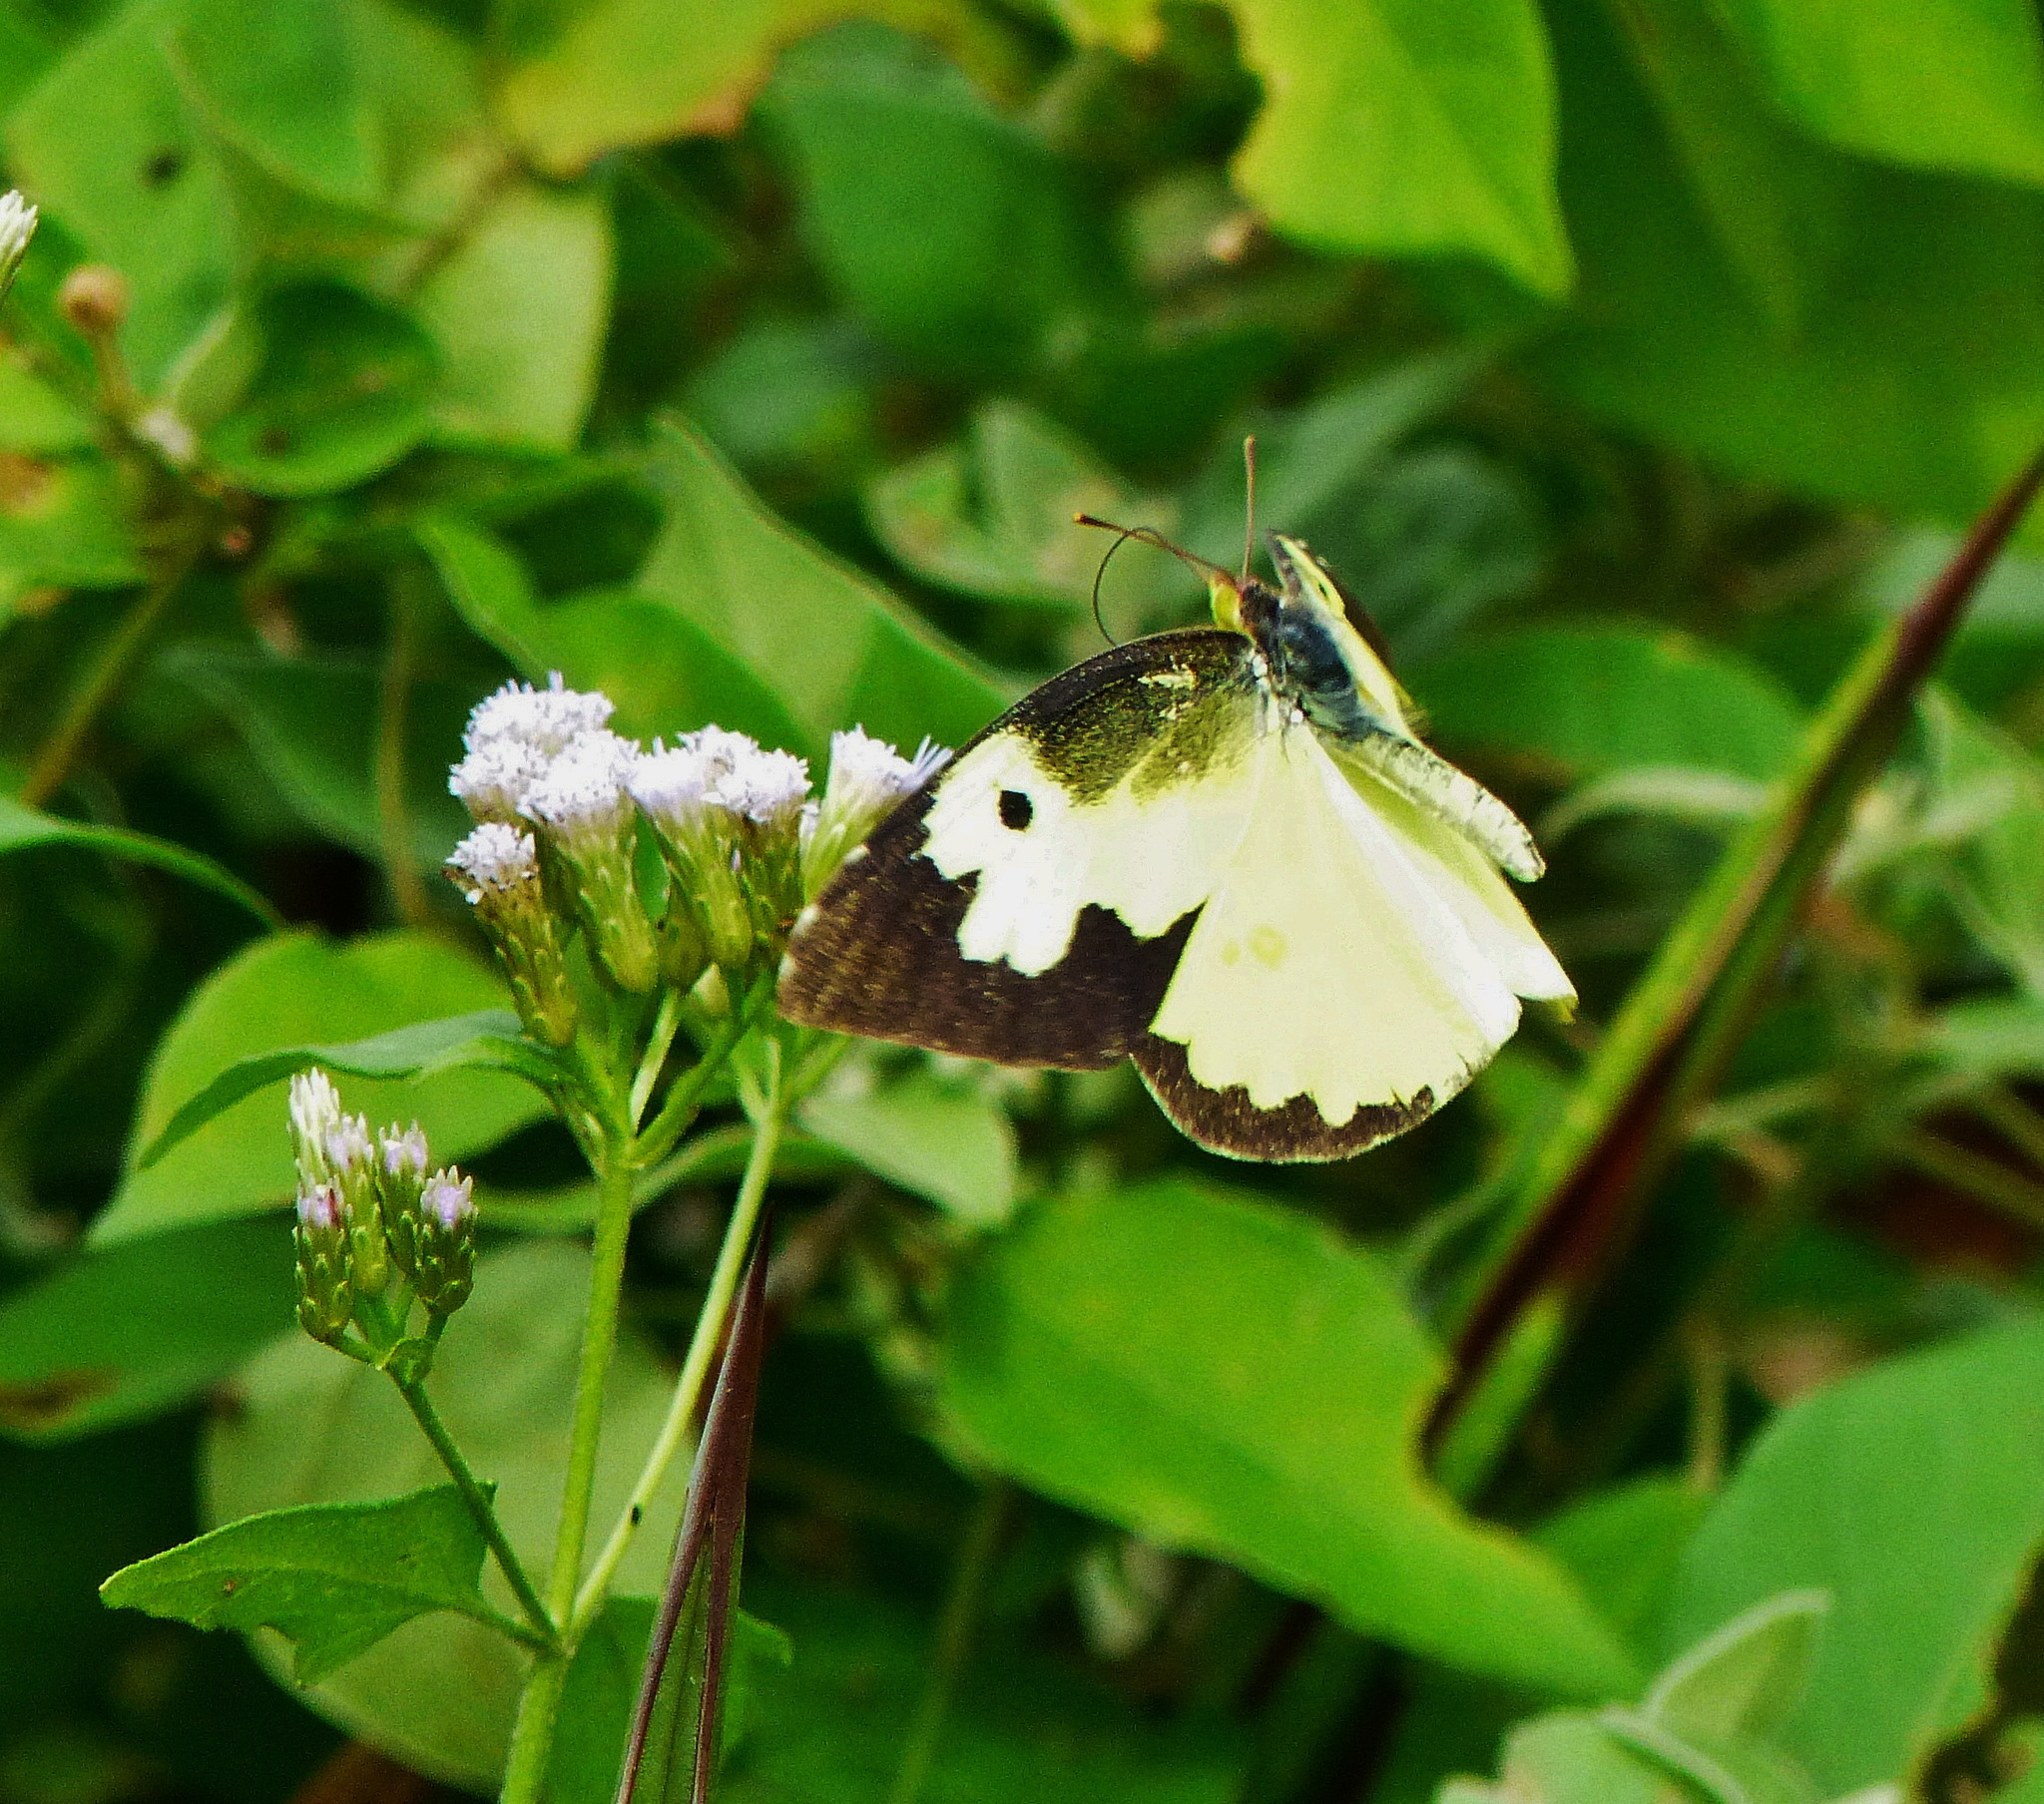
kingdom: Animalia
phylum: Arthropoda
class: Insecta
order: Lepidoptera
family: Pieridae
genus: Zerene
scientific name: Zerene cesonia
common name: Southern dogface
